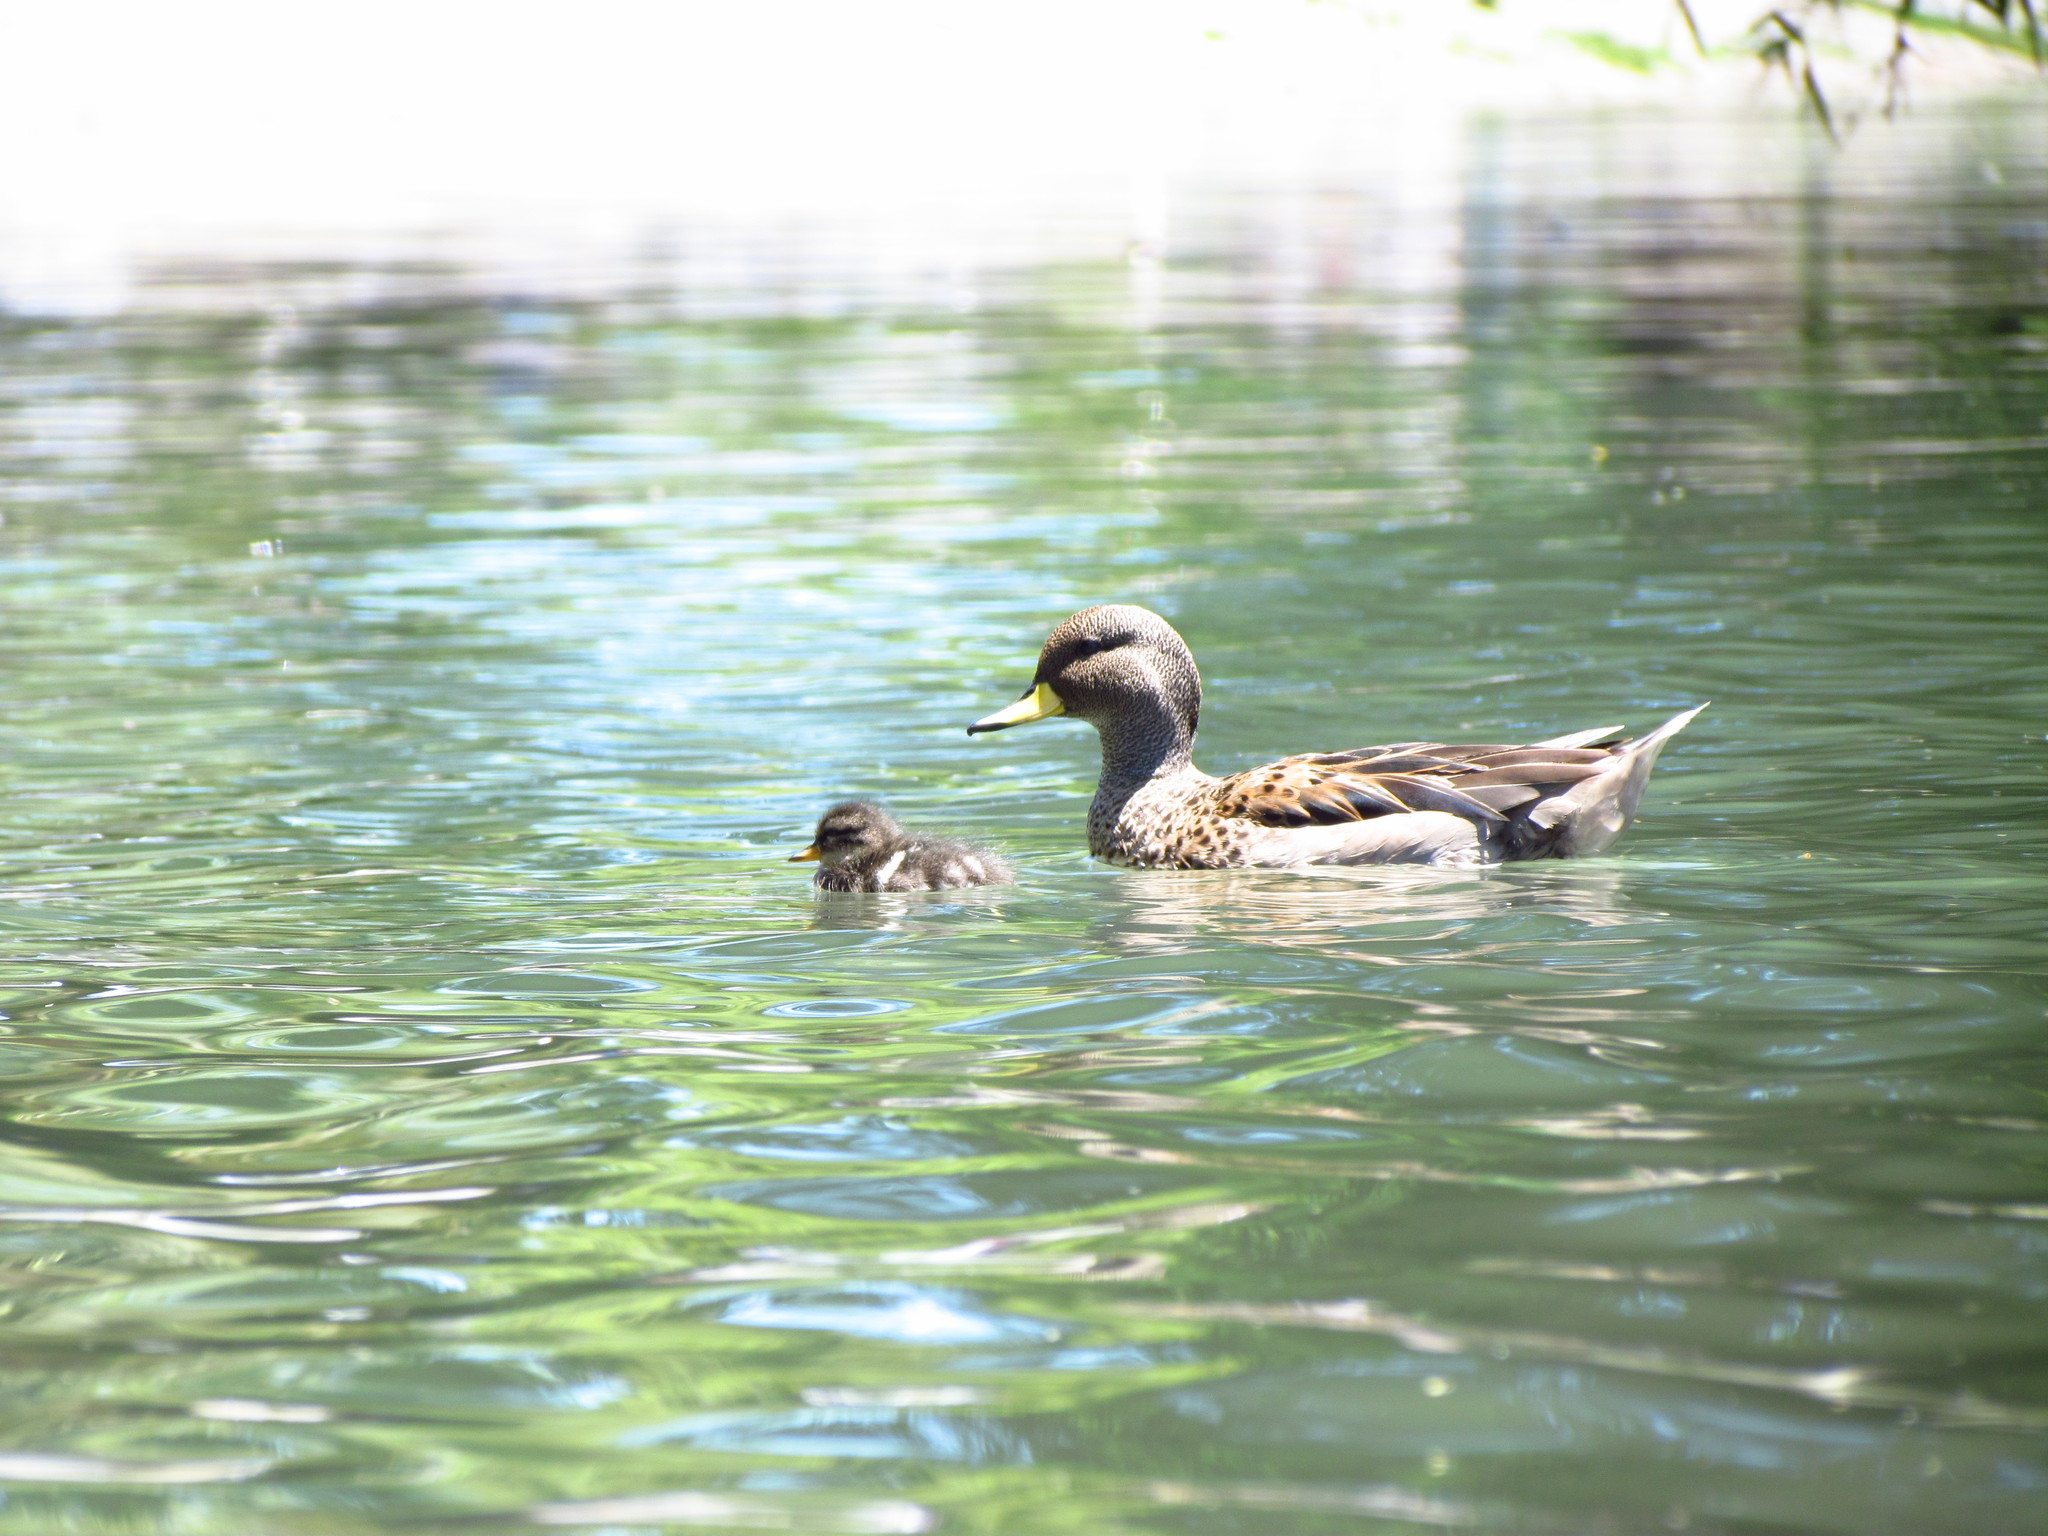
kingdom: Animalia
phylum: Chordata
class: Aves
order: Anseriformes
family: Anatidae
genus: Anas
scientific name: Anas flavirostris
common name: Yellow-billed teal
